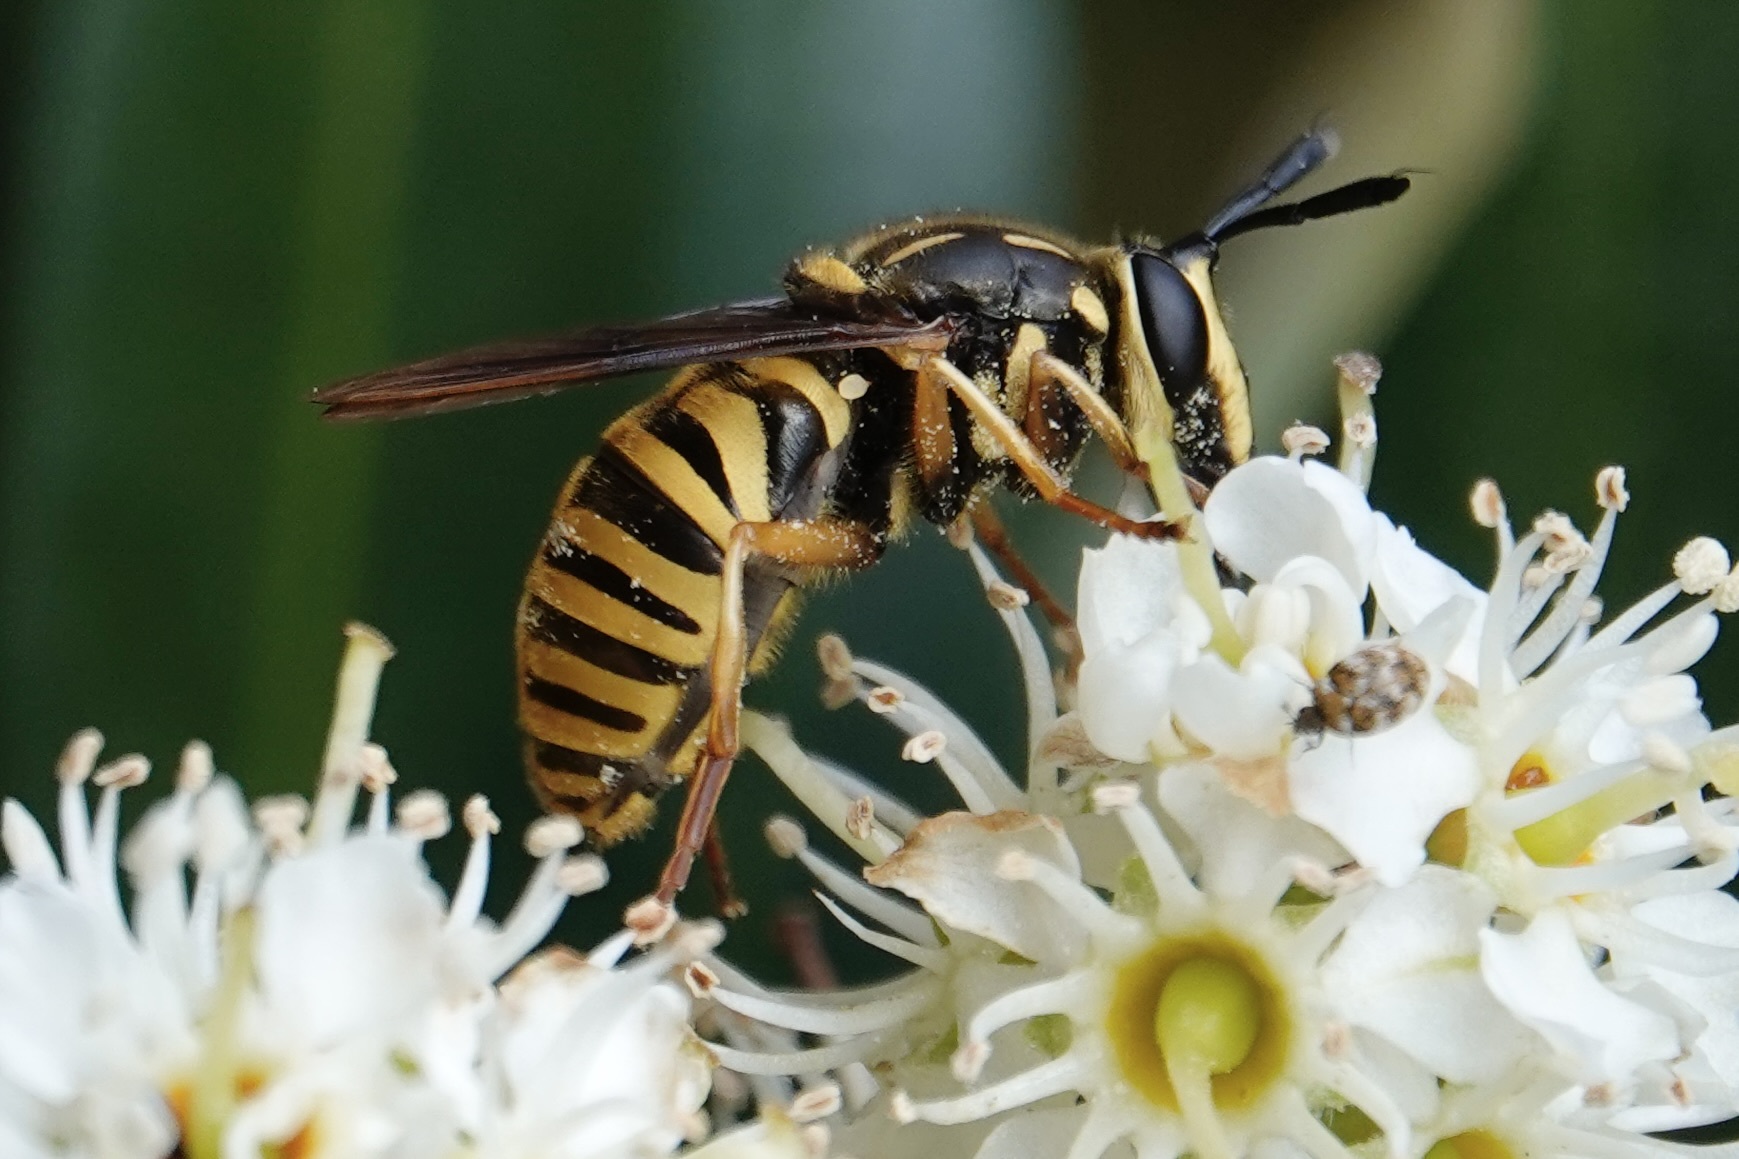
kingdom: Animalia
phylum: Arthropoda
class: Insecta
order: Diptera
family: Syrphidae
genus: Sphecomyia
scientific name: Sphecomyia vittata
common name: Long-horned yellowjacket fly
